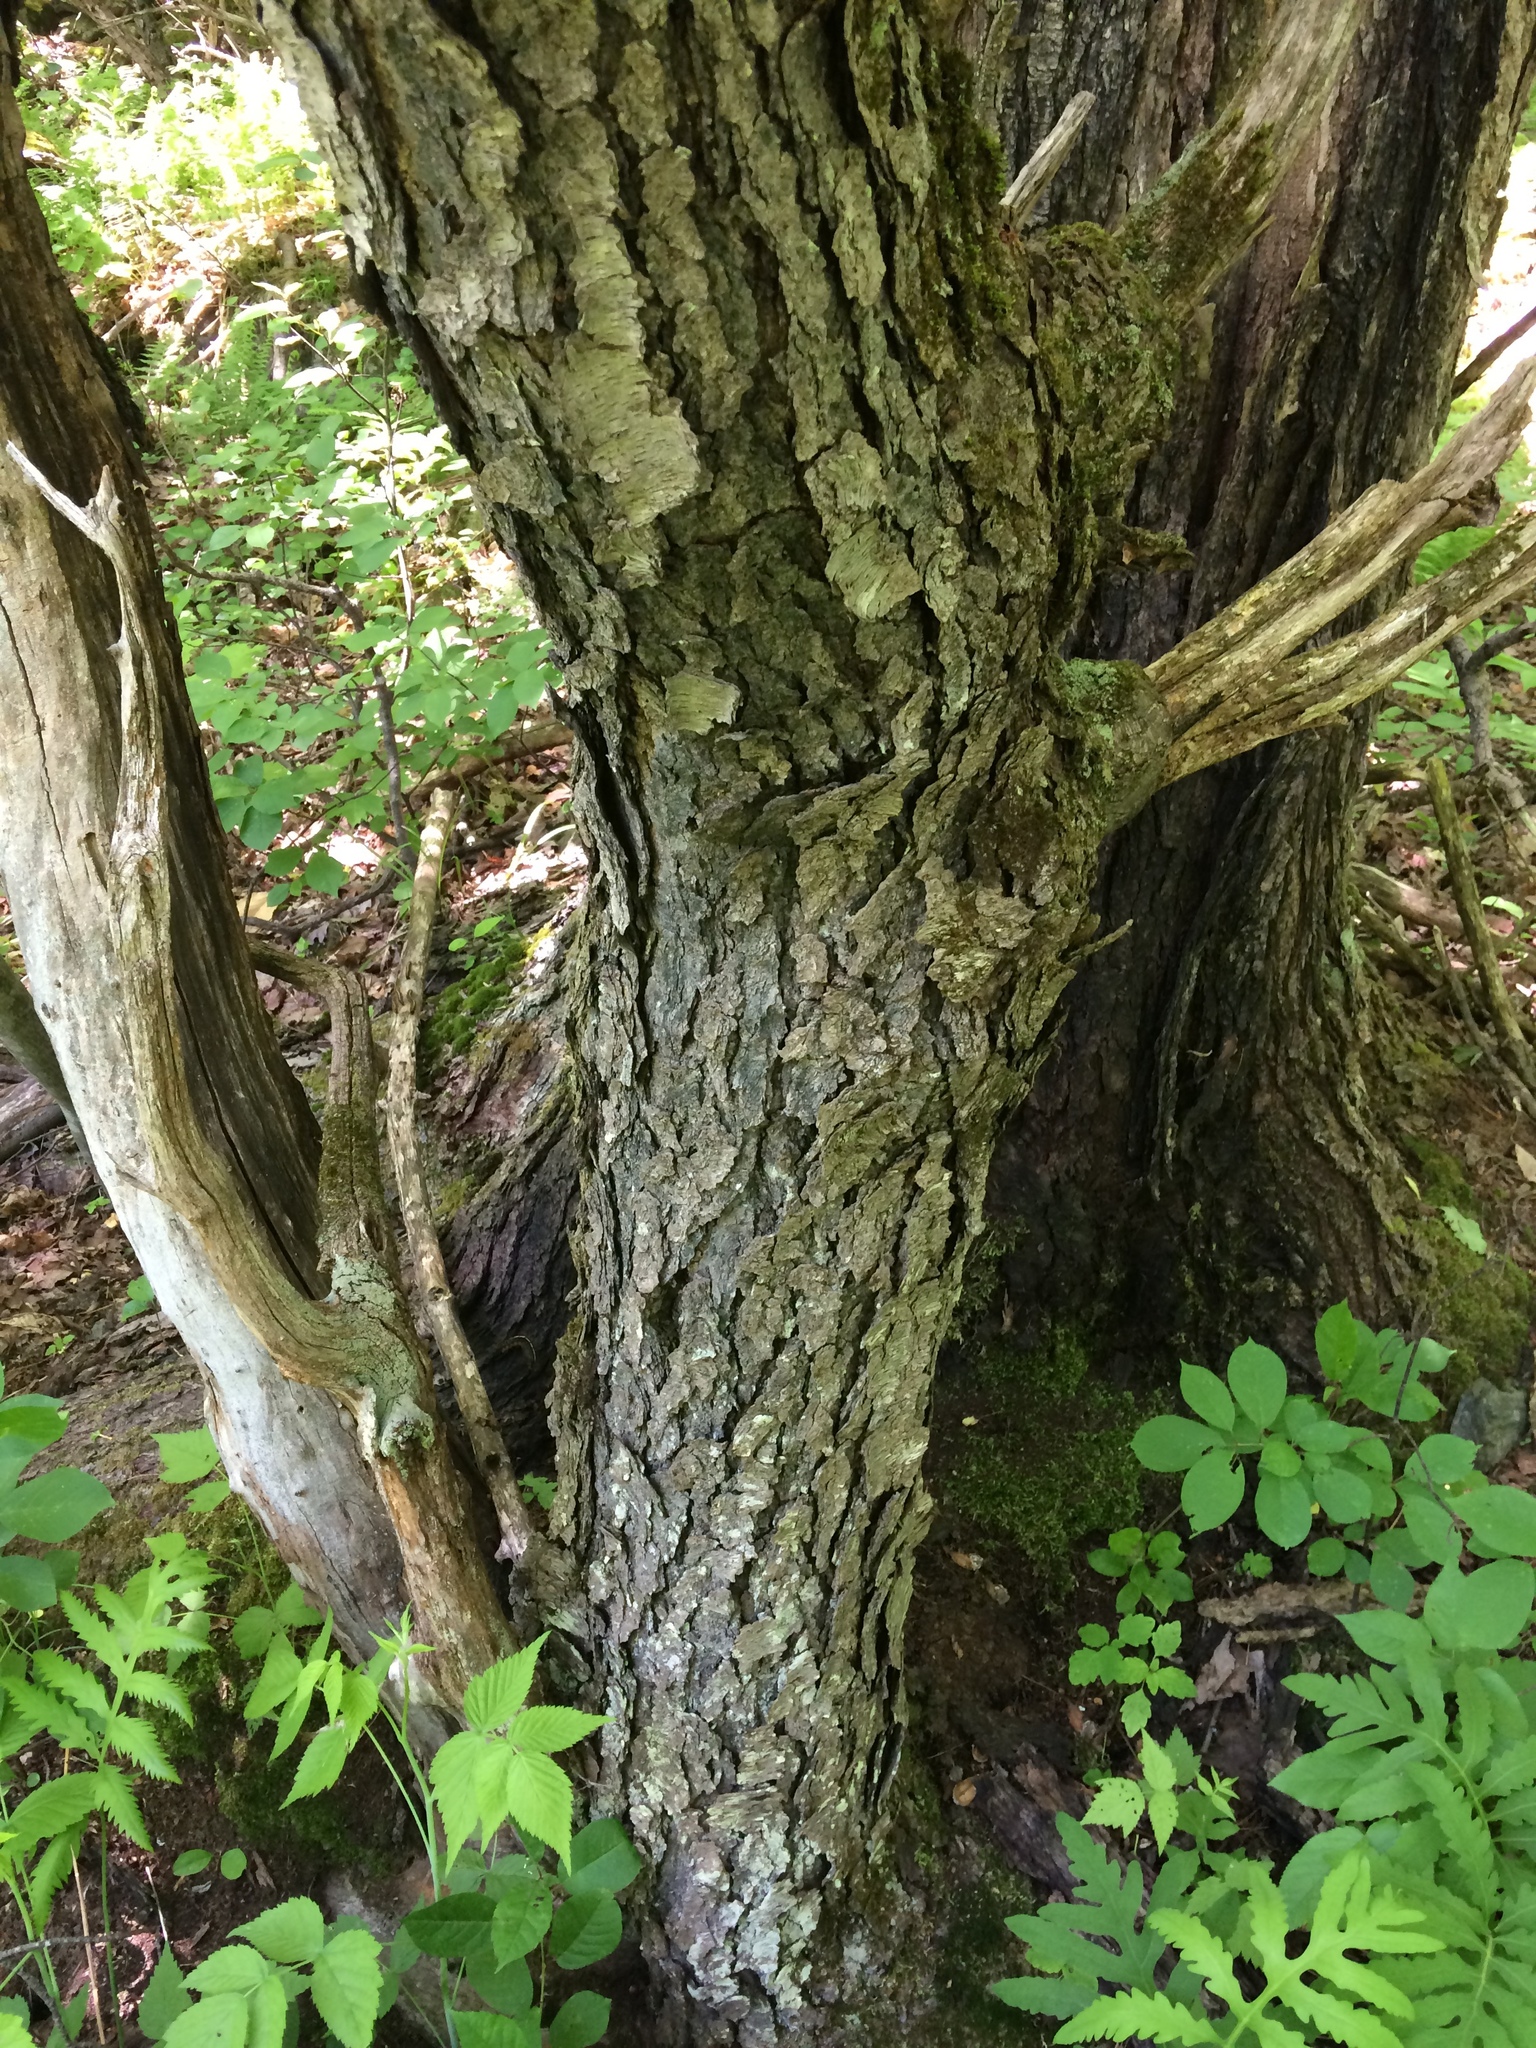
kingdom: Plantae
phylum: Tracheophyta
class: Magnoliopsida
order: Rosales
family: Rosaceae
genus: Prunus
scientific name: Prunus serotina
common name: Black cherry
